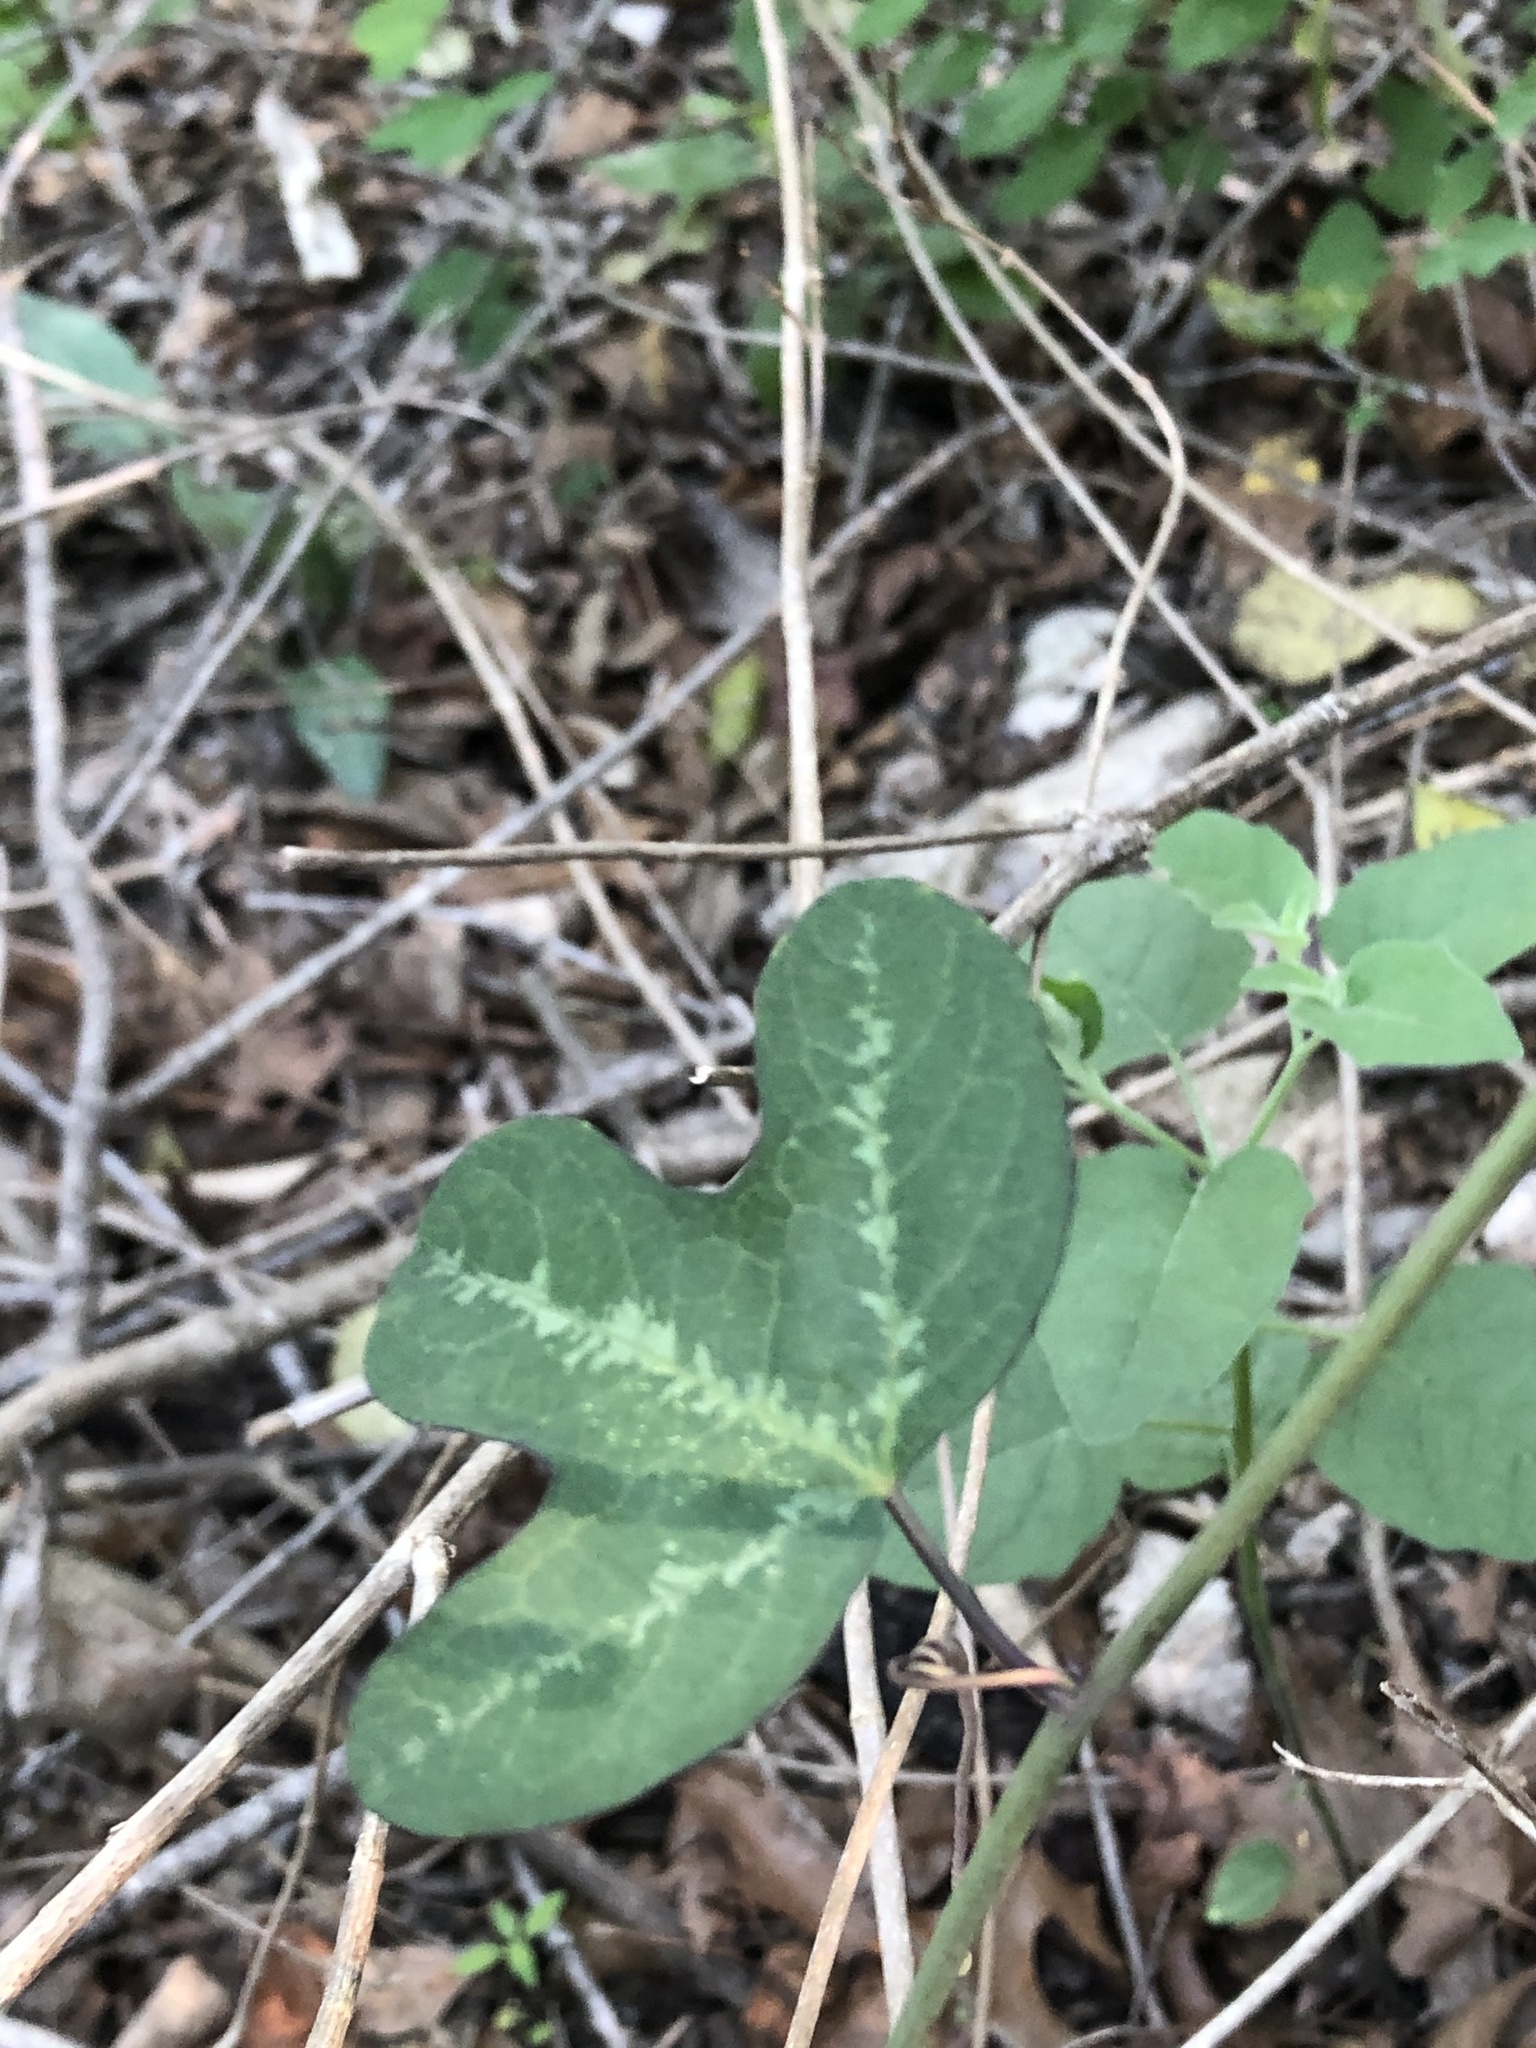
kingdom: Plantae
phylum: Tracheophyta
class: Magnoliopsida
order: Malpighiales
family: Passifloraceae
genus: Passiflora
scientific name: Passiflora affinis
